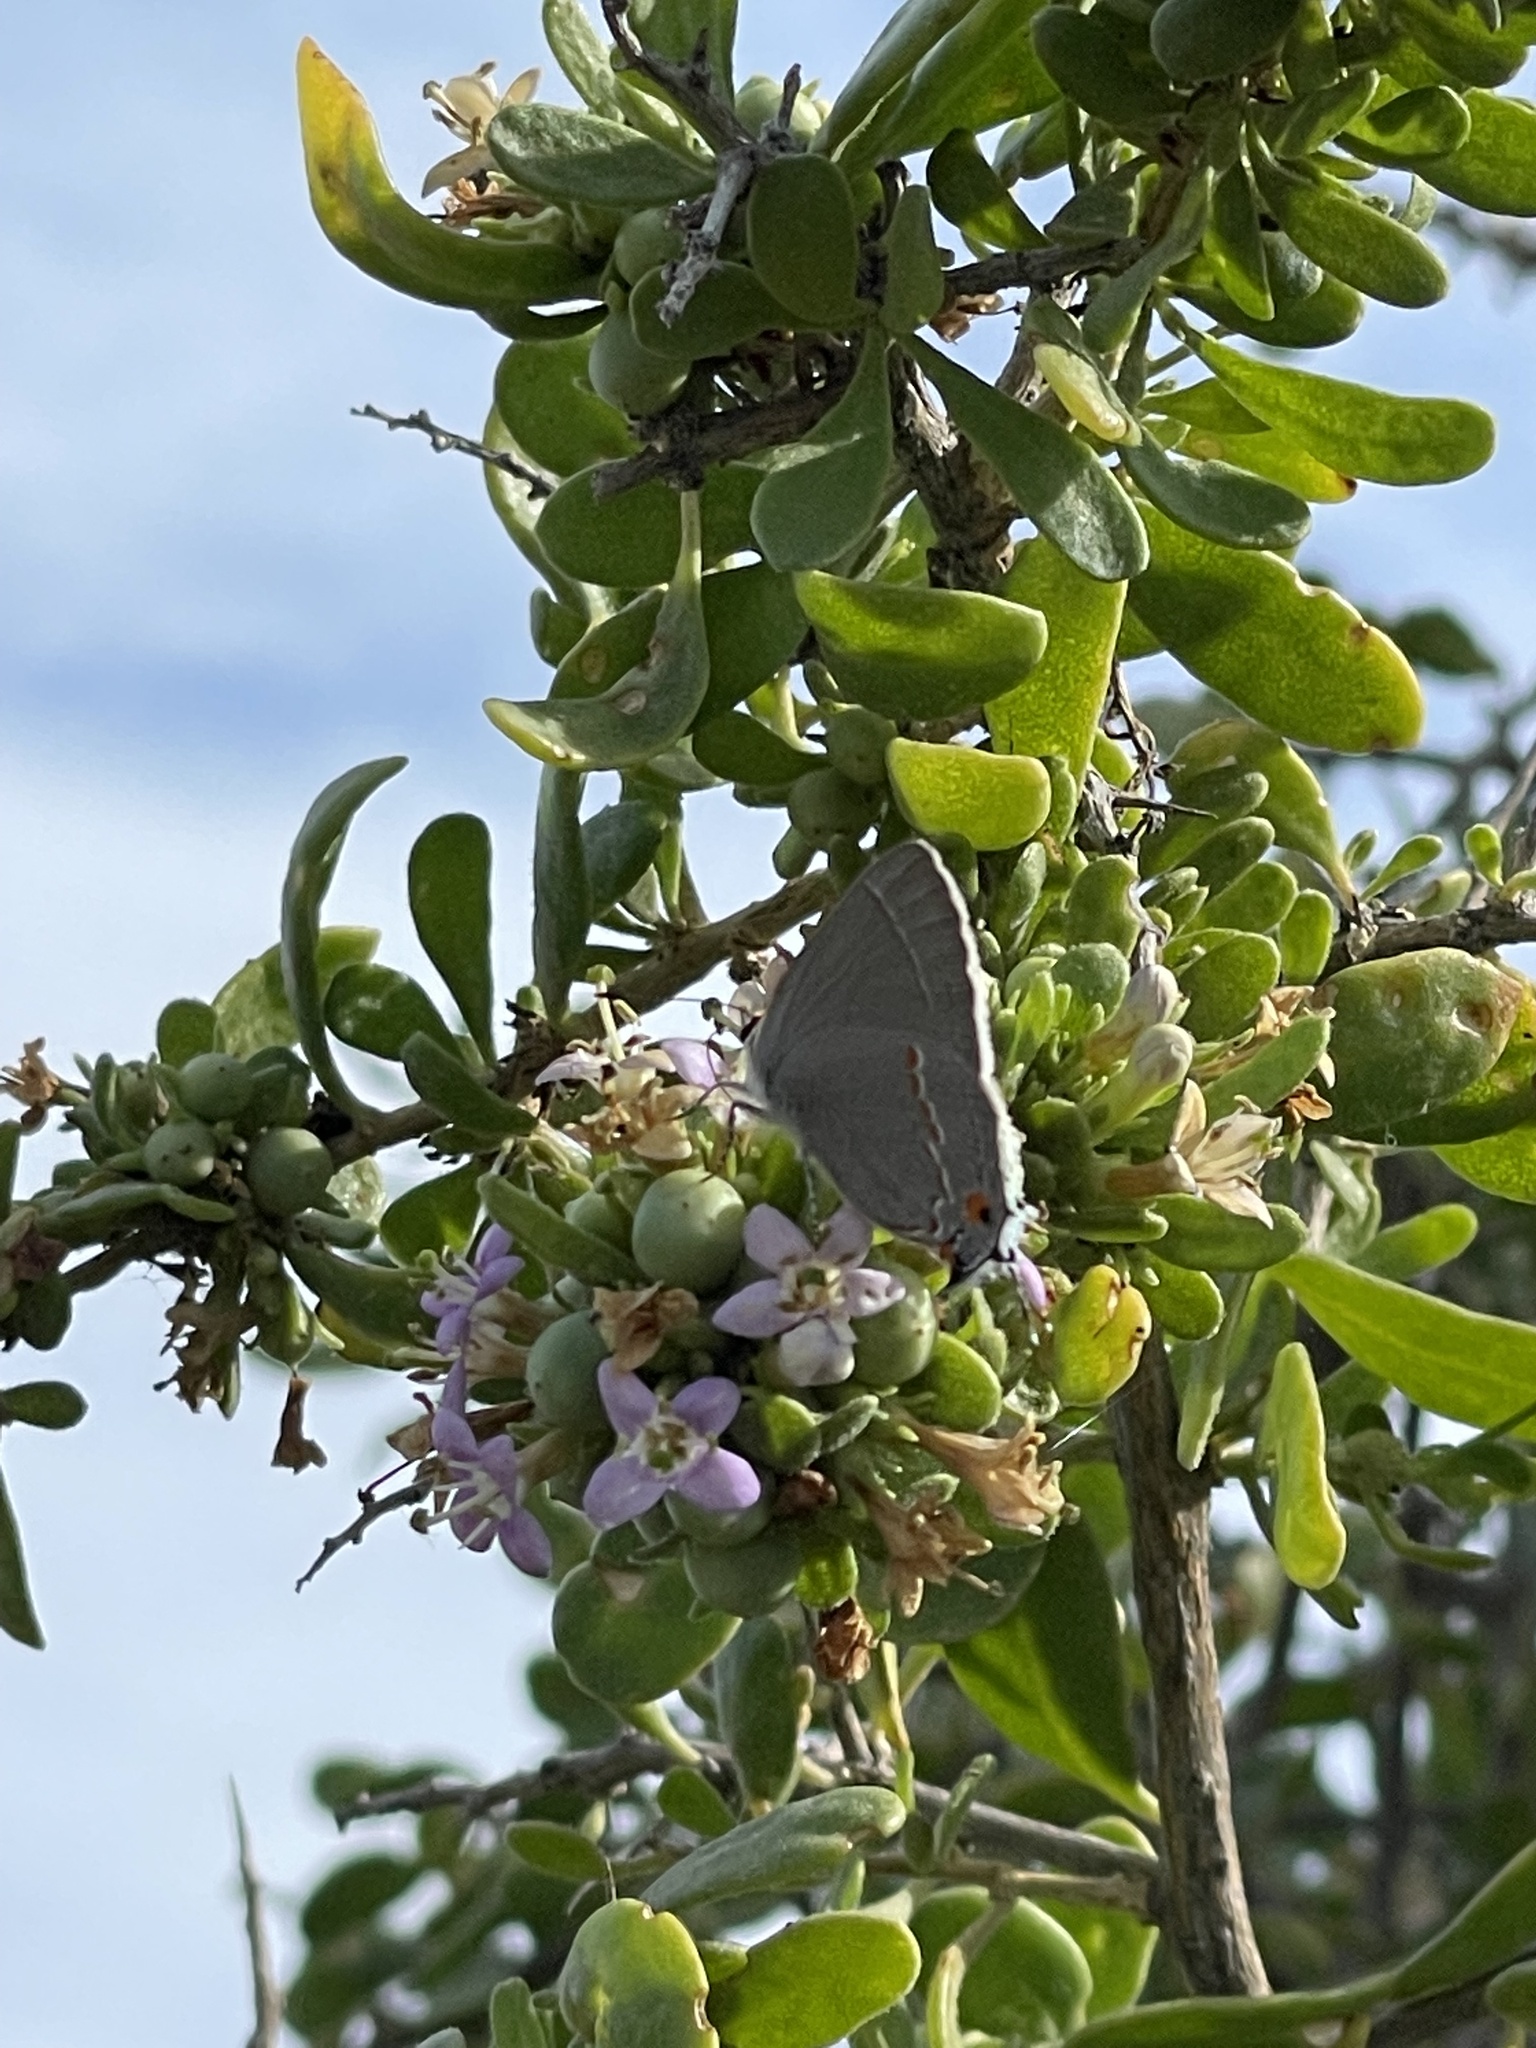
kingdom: Animalia
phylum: Arthropoda
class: Insecta
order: Lepidoptera
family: Lycaenidae
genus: Thecla
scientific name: Thecla pudica
